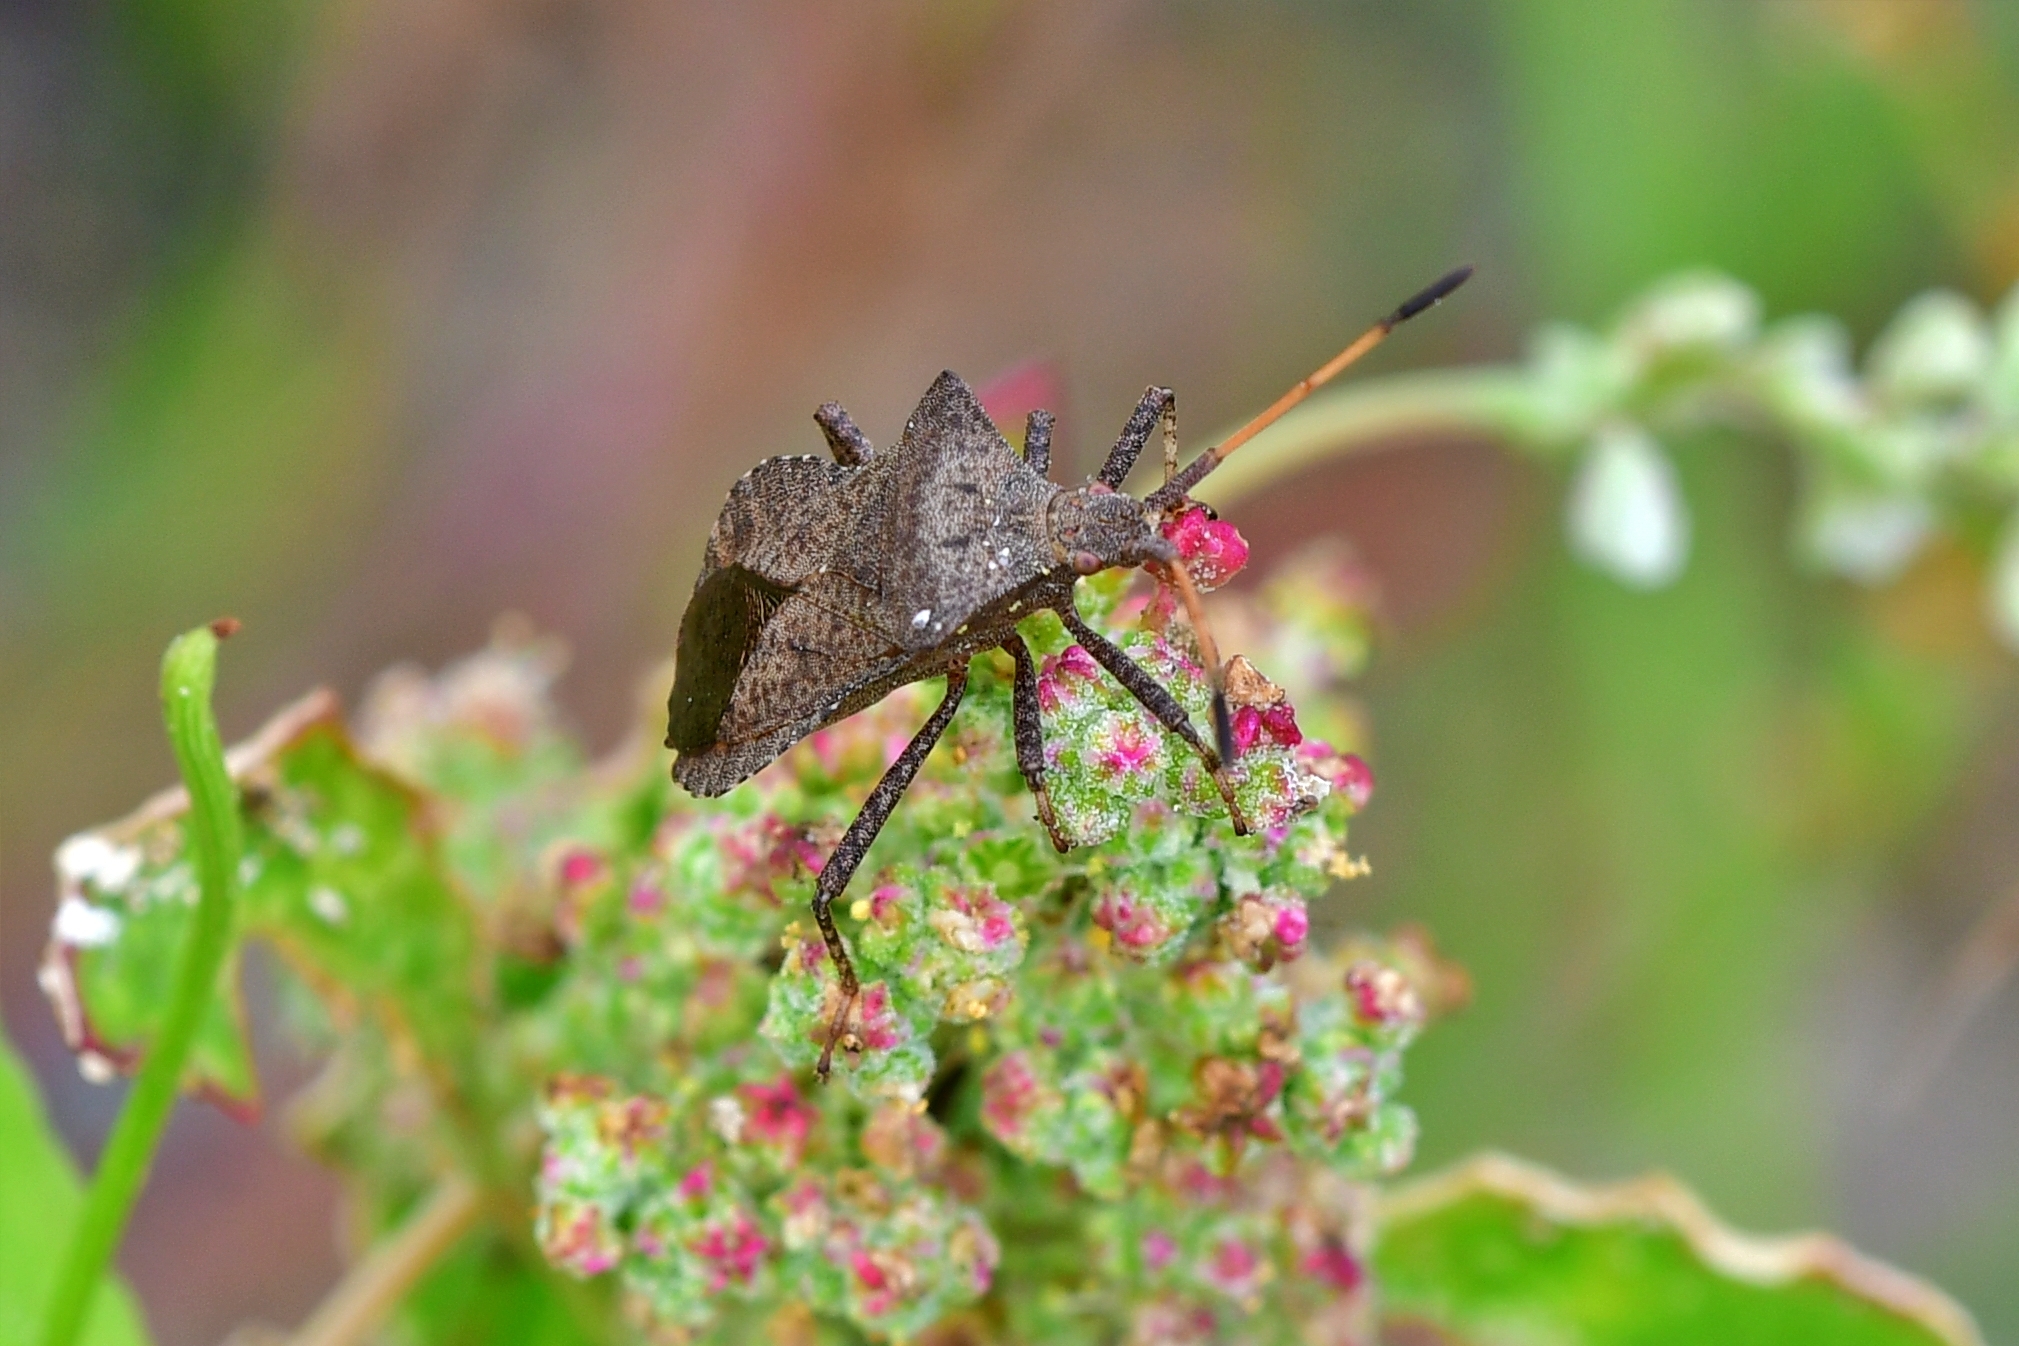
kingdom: Animalia
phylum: Arthropoda
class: Insecta
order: Hemiptera
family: Coreidae
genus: Coreus
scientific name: Coreus marginatus
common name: Dock bug
